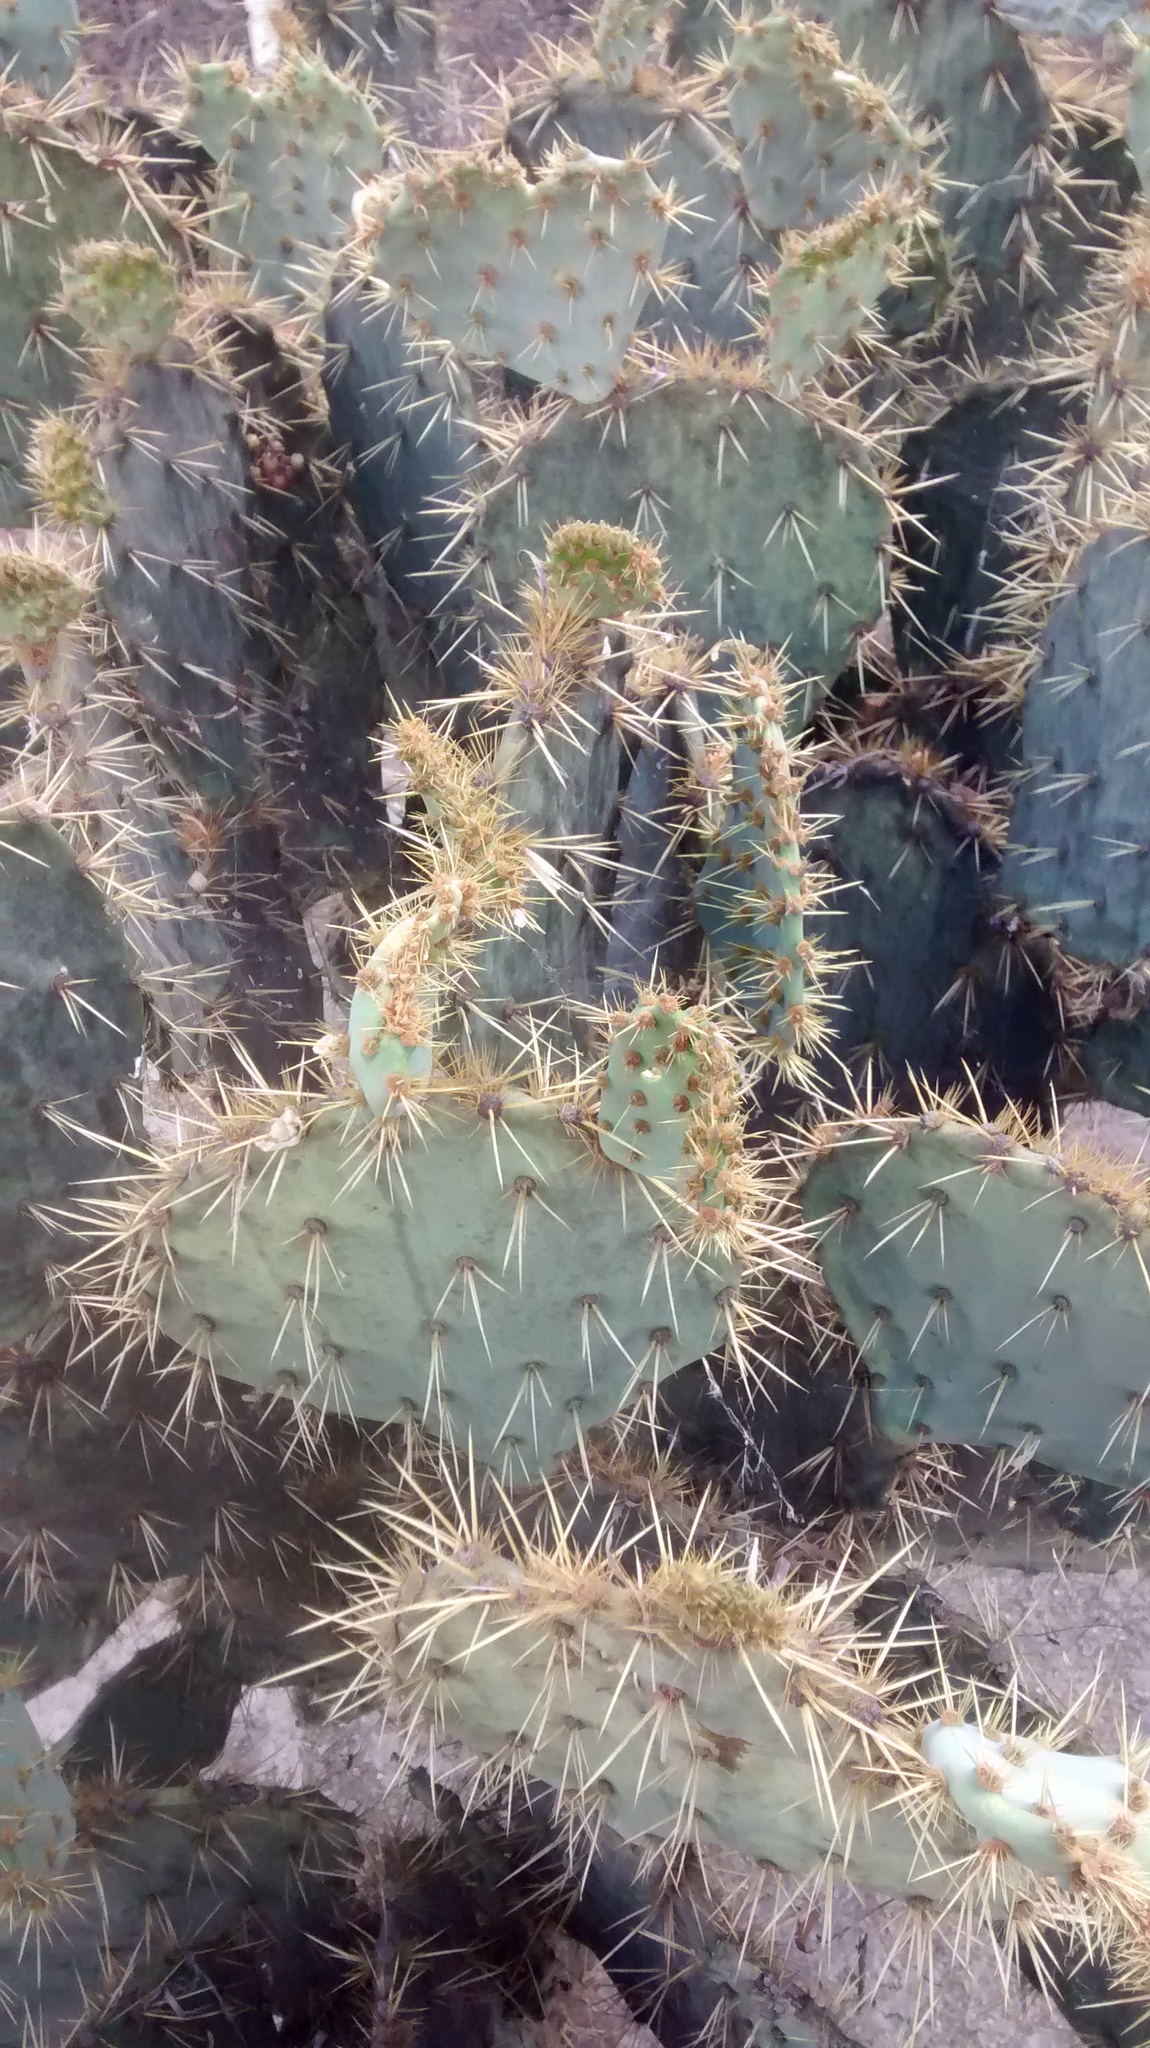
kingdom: Plantae
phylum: Tracheophyta
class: Magnoliopsida
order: Caryophyllales
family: Cactaceae
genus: Opuntia
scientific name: Opuntia engelmannii
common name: Cactus-apple
